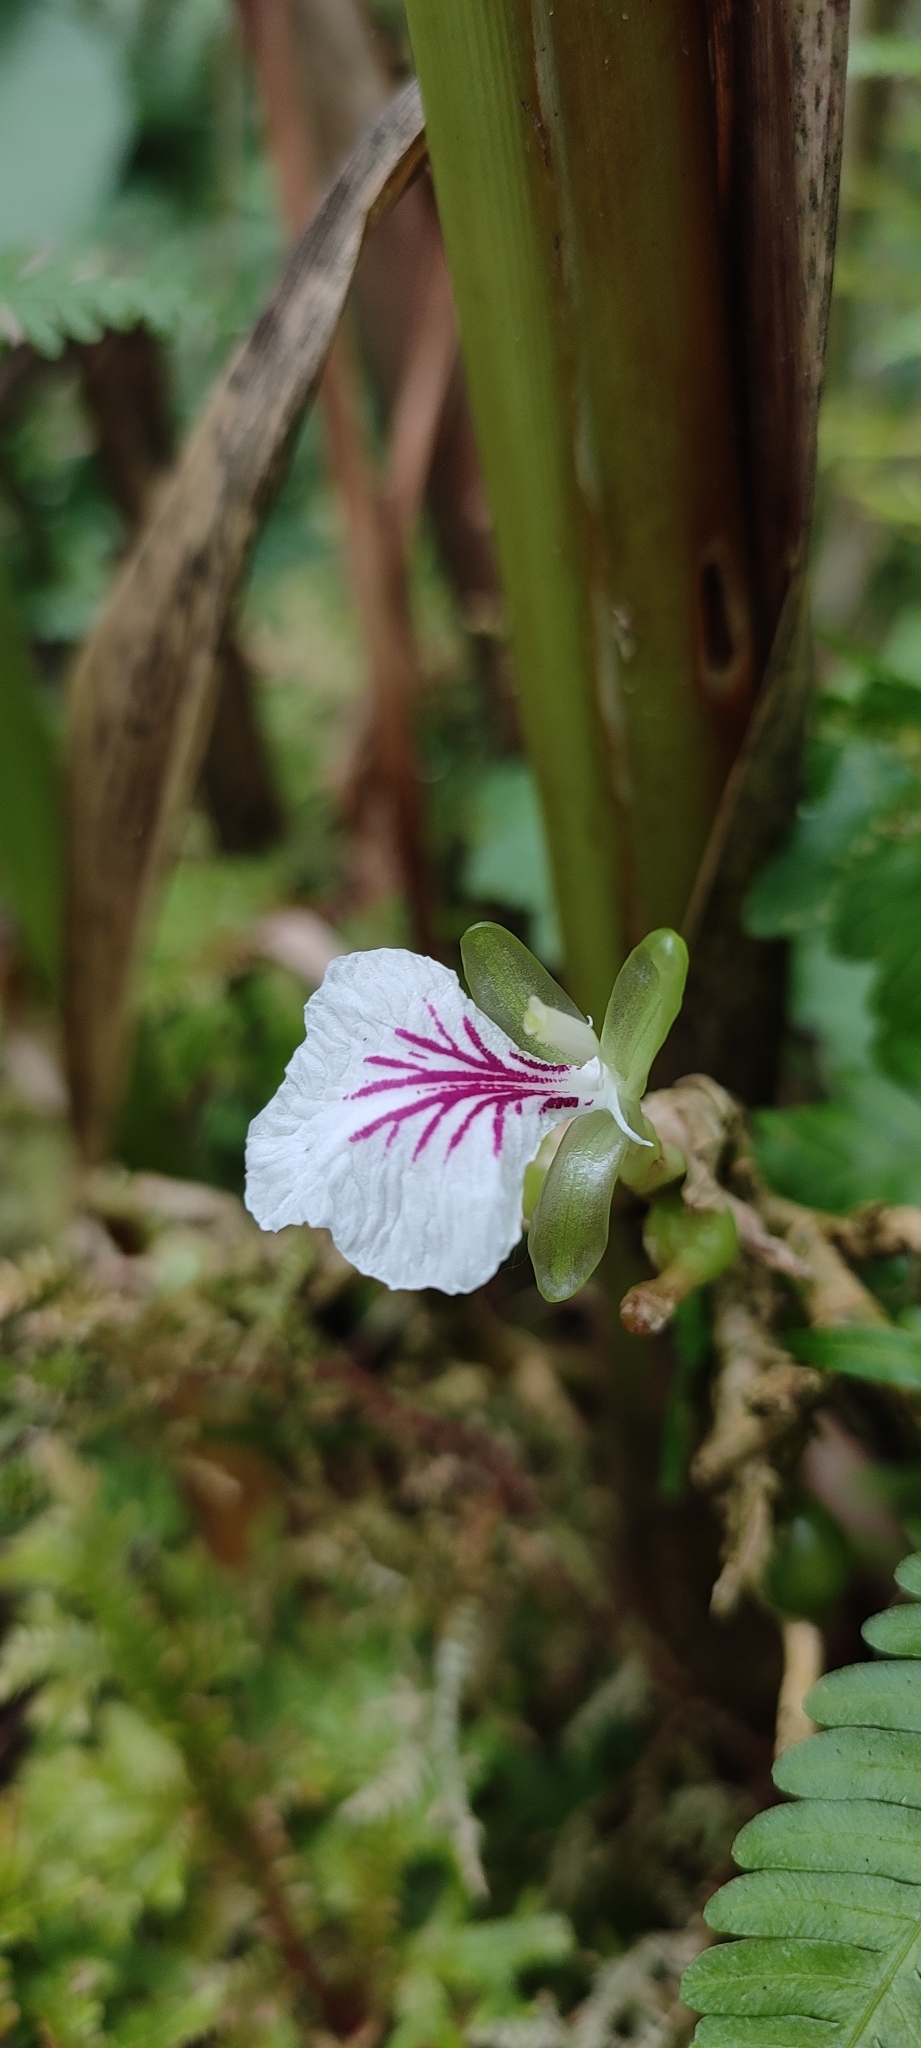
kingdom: Plantae
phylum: Tracheophyta
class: Liliopsida
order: Zingiberales
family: Zingiberaceae
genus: Elettaria
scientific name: Elettaria cardamomum
